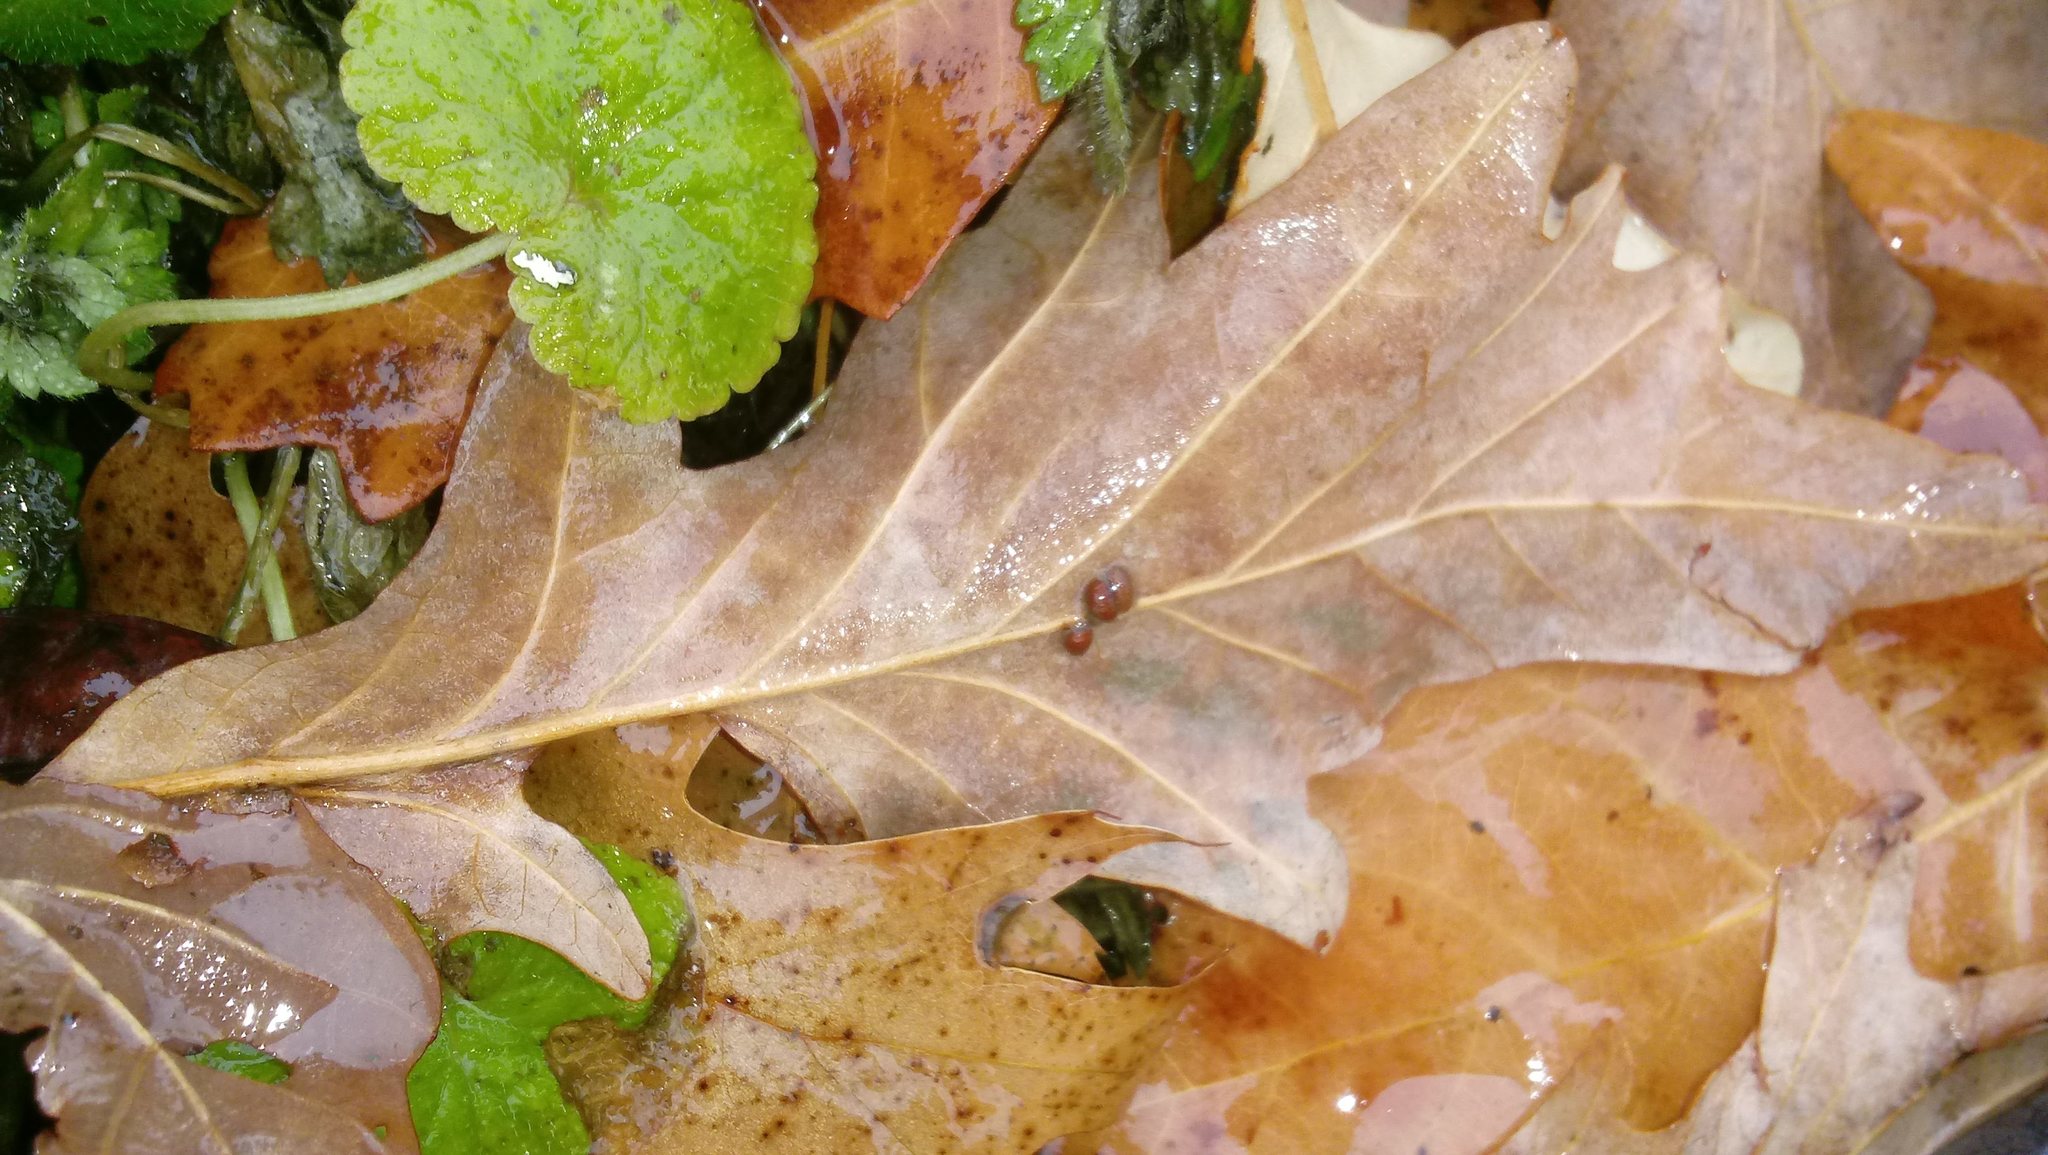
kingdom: Animalia
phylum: Arthropoda
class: Insecta
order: Hymenoptera
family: Cynipidae
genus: Andricus
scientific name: Andricus Druon ignotum
